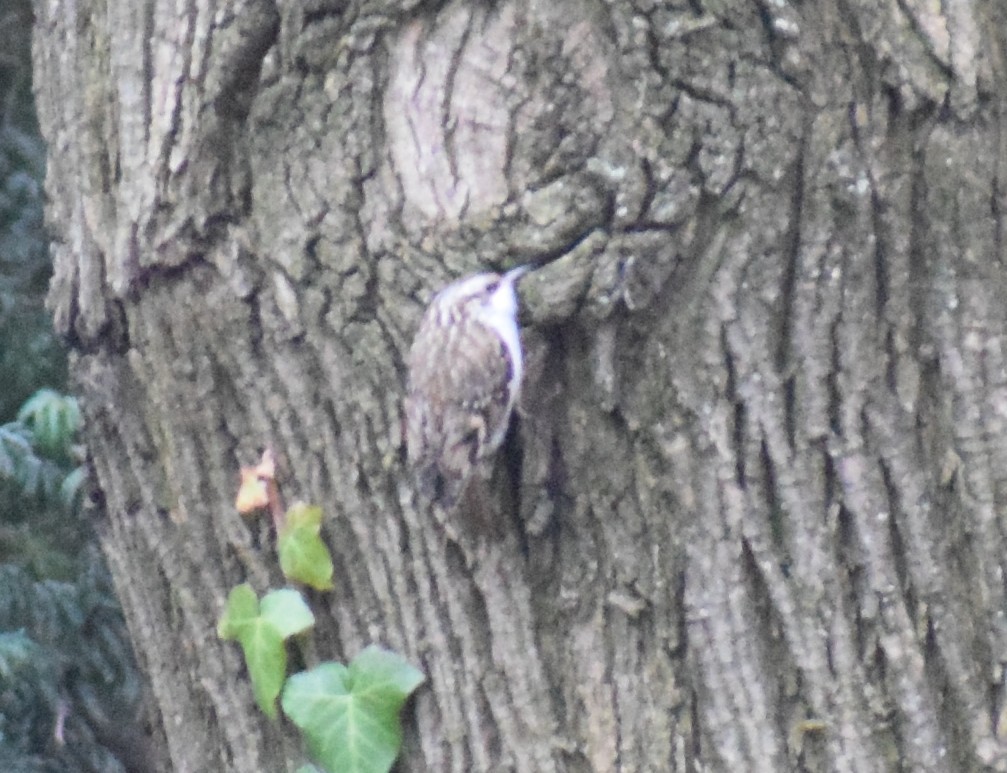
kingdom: Animalia
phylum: Chordata
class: Aves
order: Passeriformes
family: Certhiidae
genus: Certhia
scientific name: Certhia familiaris
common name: Eurasian treecreeper
